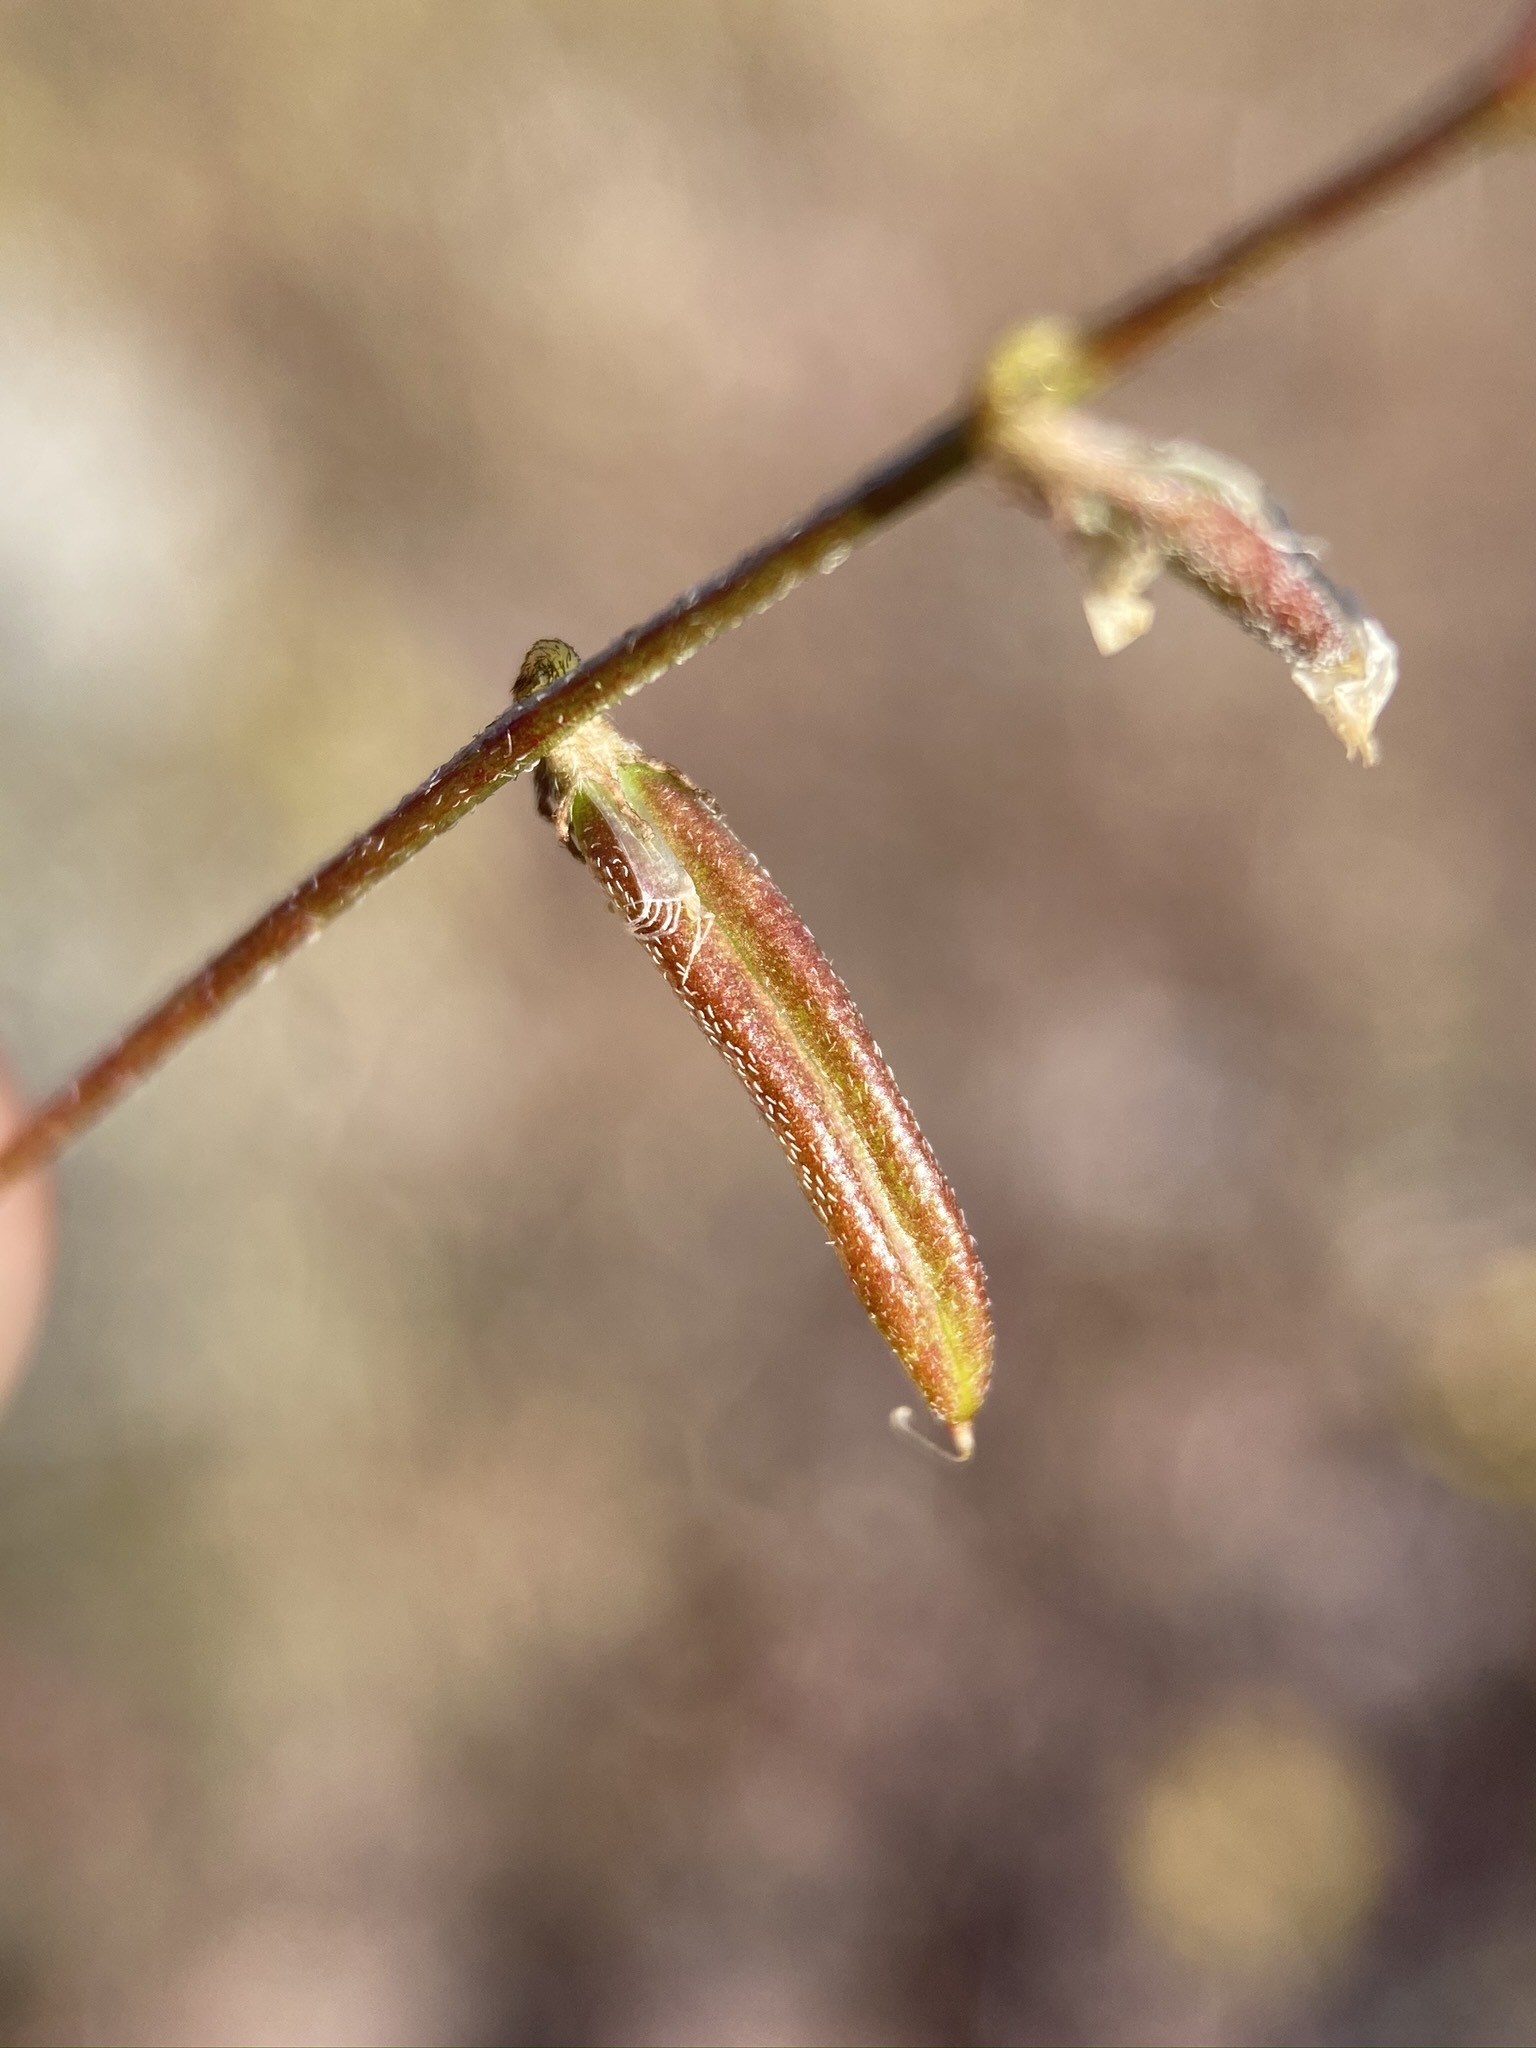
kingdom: Plantae
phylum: Tracheophyta
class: Magnoliopsida
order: Fabales
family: Fabaceae
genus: Astragalus
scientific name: Astragalus acutirostris
